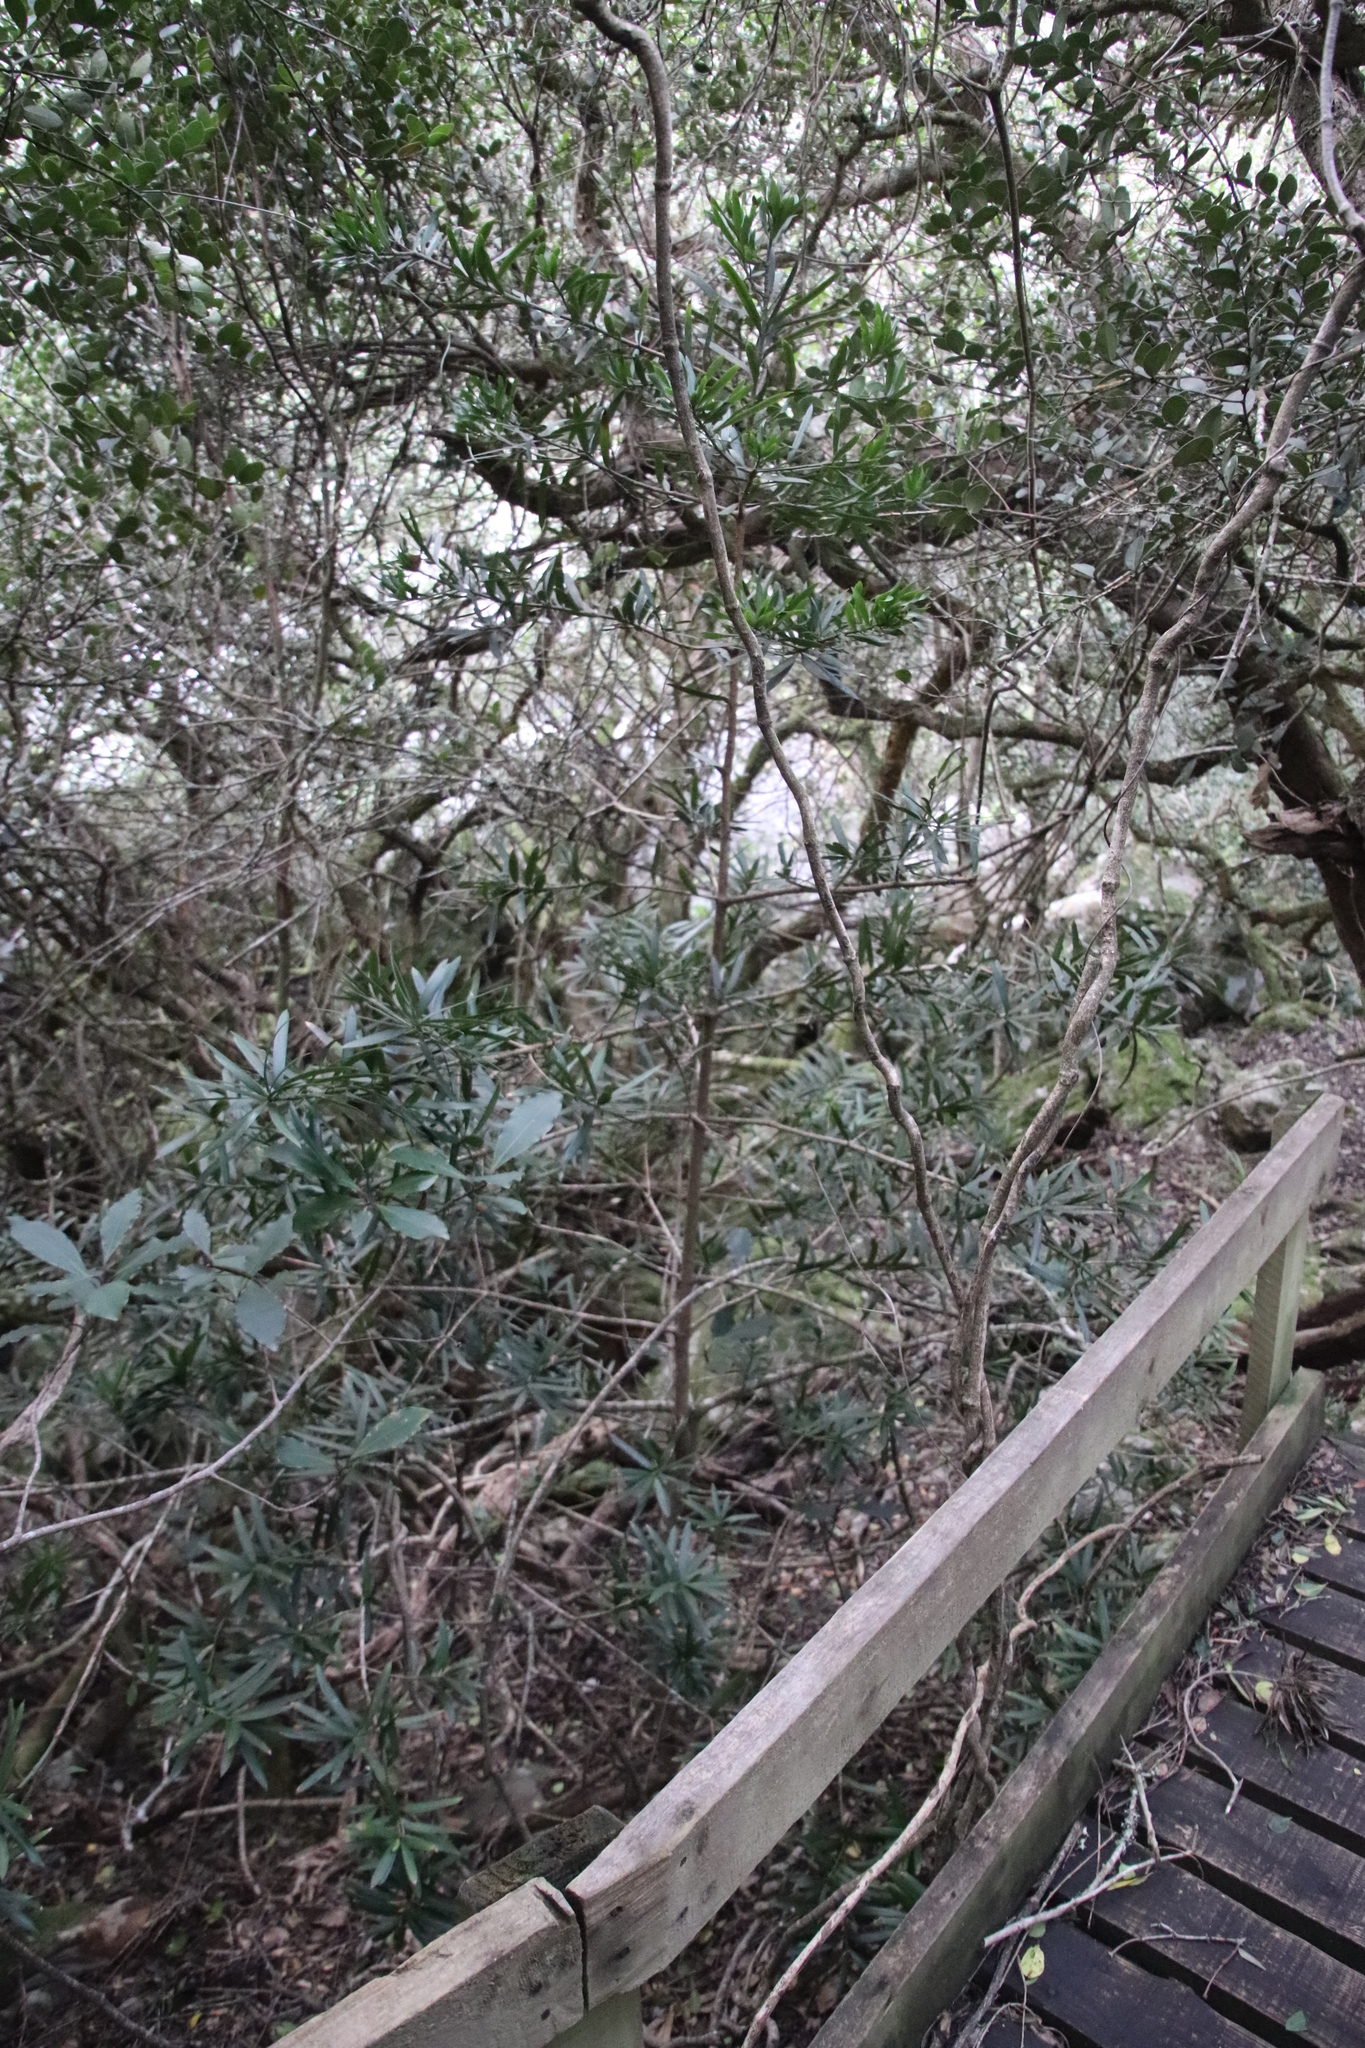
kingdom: Plantae
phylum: Tracheophyta
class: Pinopsida
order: Pinales
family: Podocarpaceae
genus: Podocarpus
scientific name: Podocarpus latifolius
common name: True yellowwood
